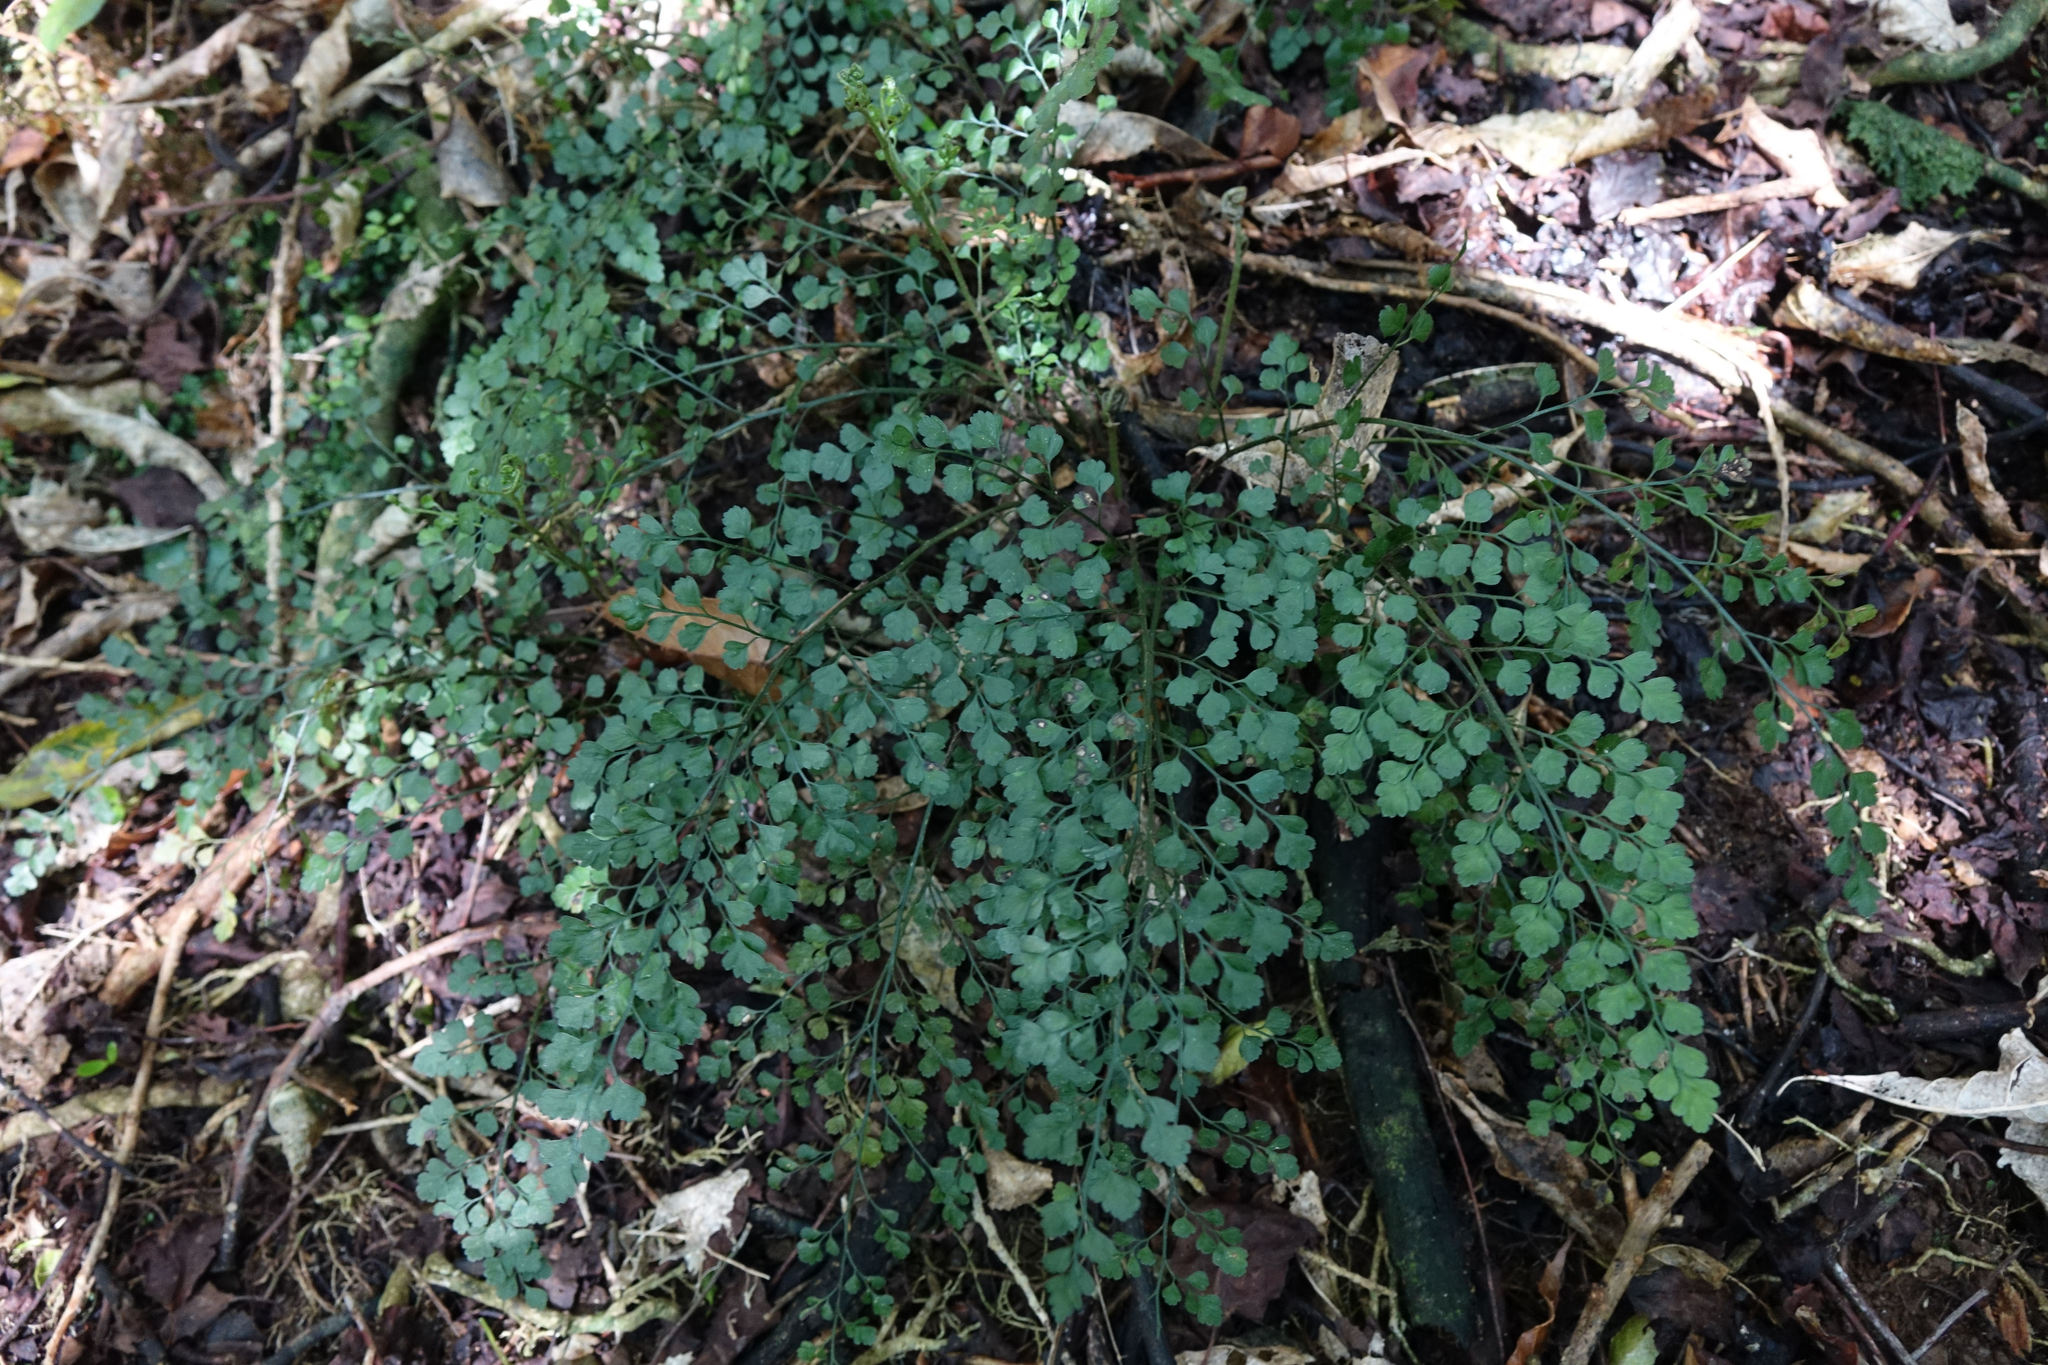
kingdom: Plantae
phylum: Tracheophyta
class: Polypodiopsida
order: Polypodiales
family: Aspleniaceae
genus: Asplenium
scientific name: Asplenium hookerianum
